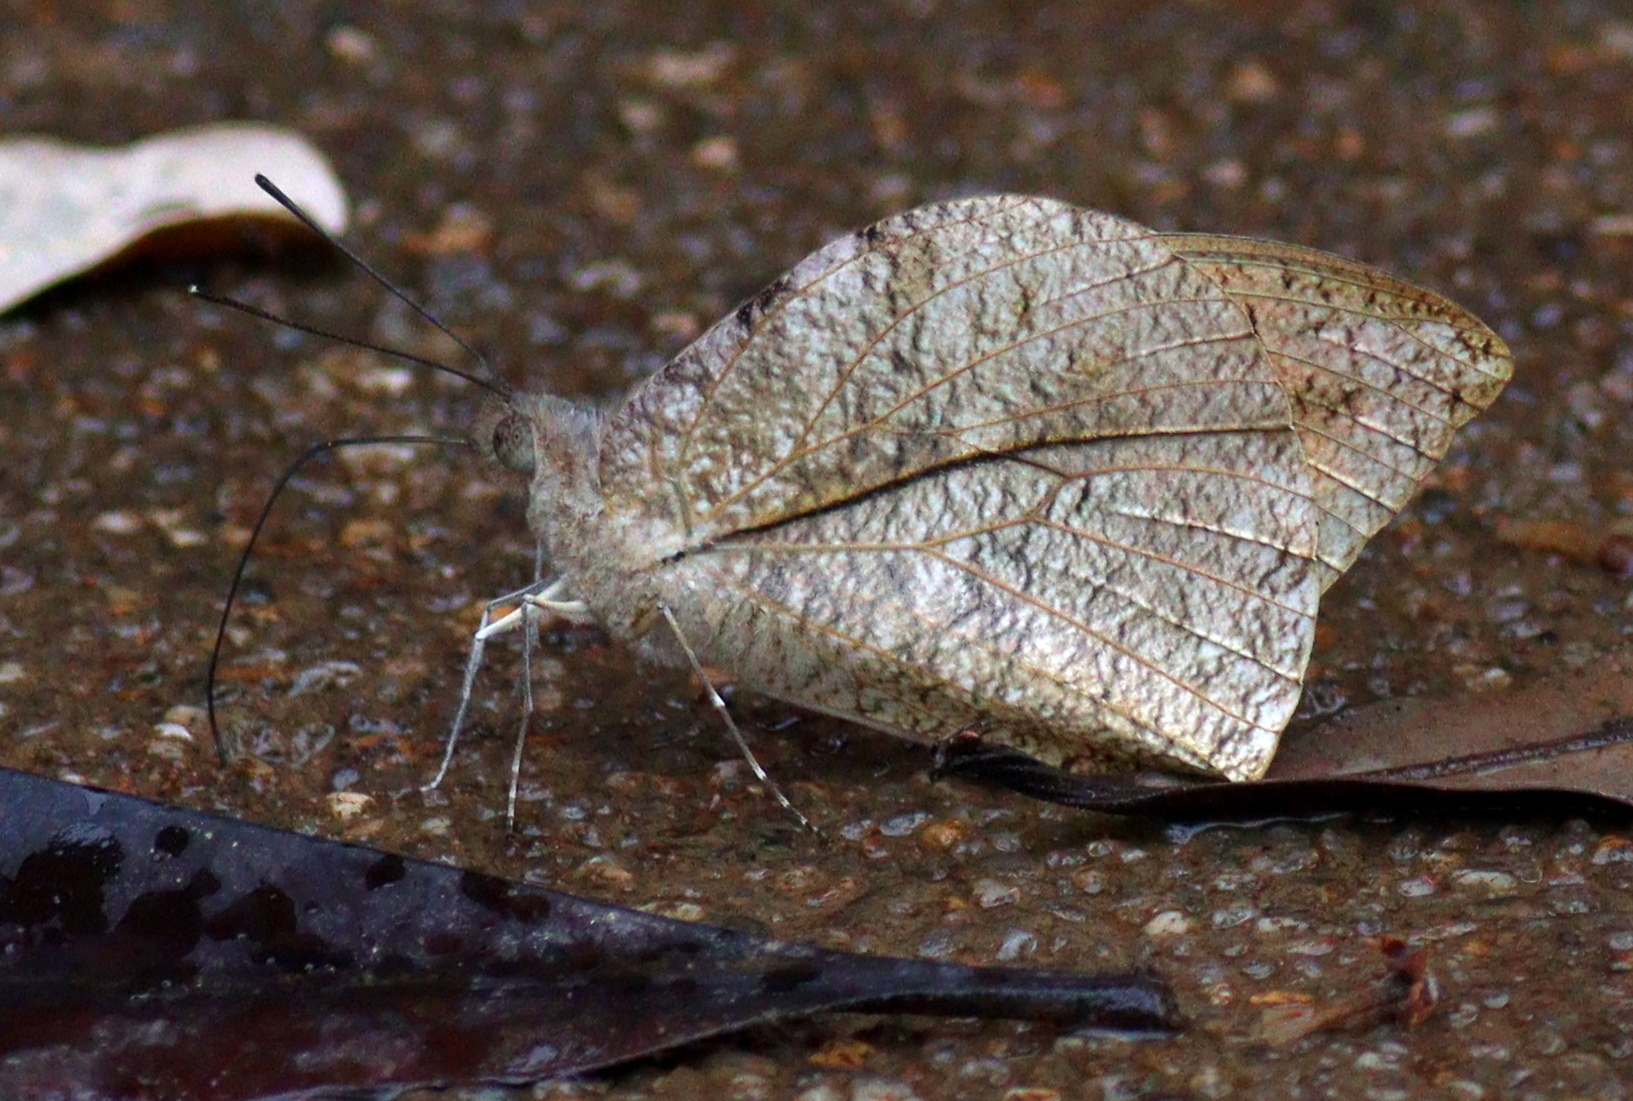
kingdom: Animalia
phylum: Arthropoda
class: Insecta
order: Lepidoptera
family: Pieridae
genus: Hebomoia
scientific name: Hebomoia glaucippe
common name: Great orange tip
